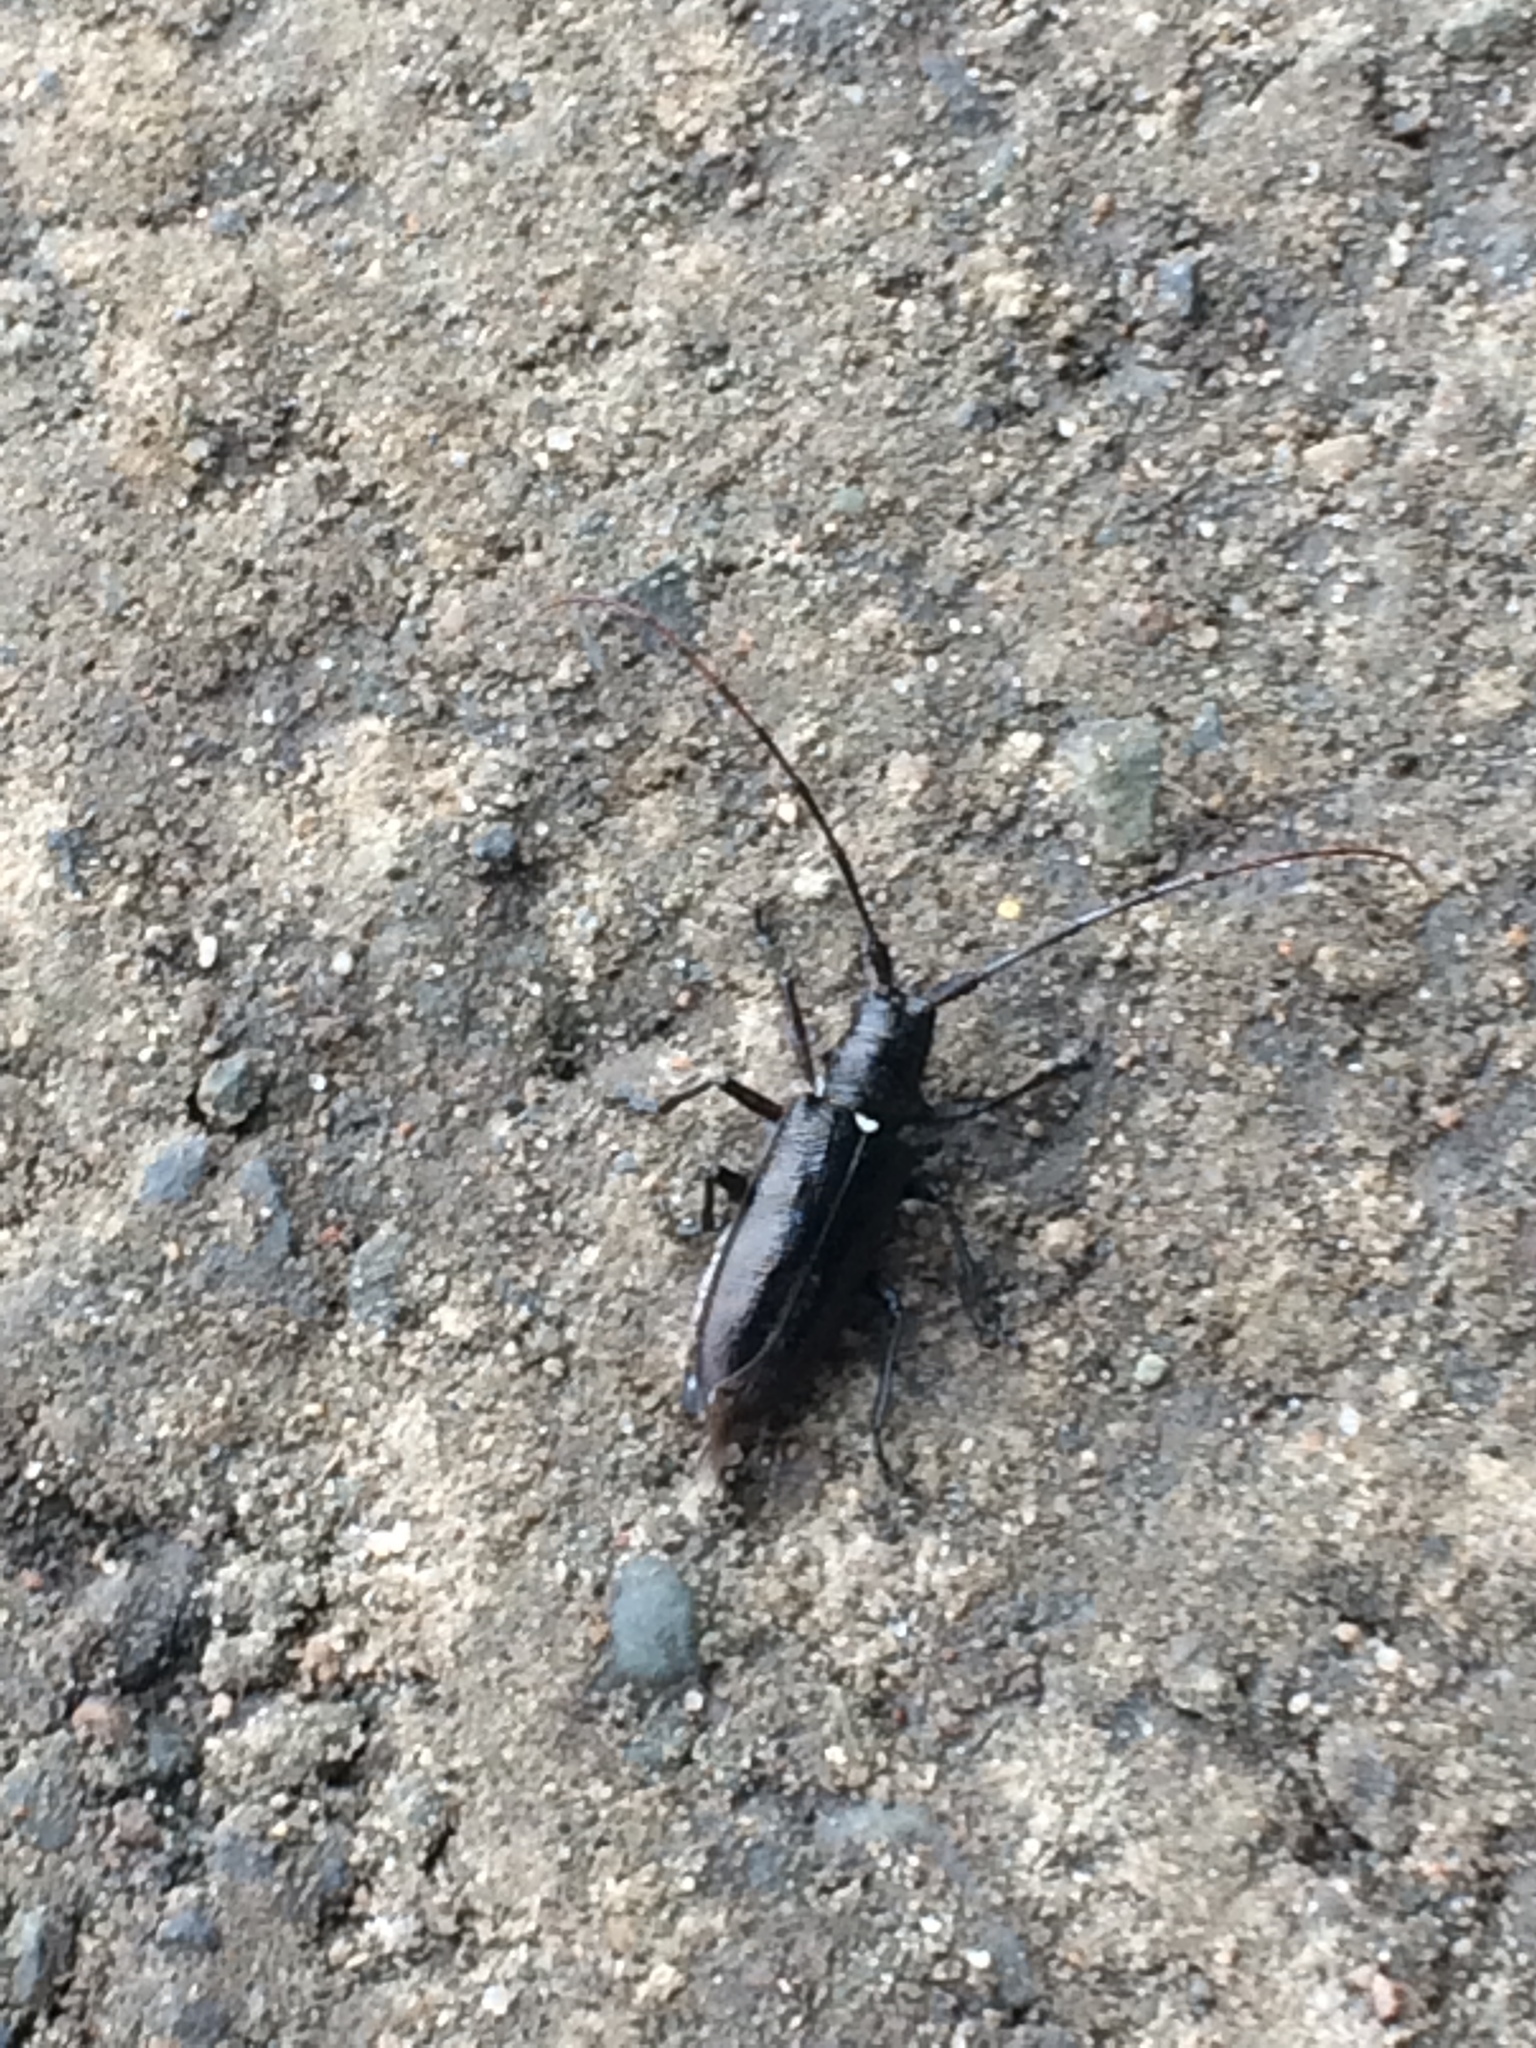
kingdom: Animalia
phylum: Arthropoda
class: Insecta
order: Coleoptera
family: Cerambycidae
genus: Monochamus
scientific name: Monochamus scutellatus
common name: White-spotted sawyer beetle
